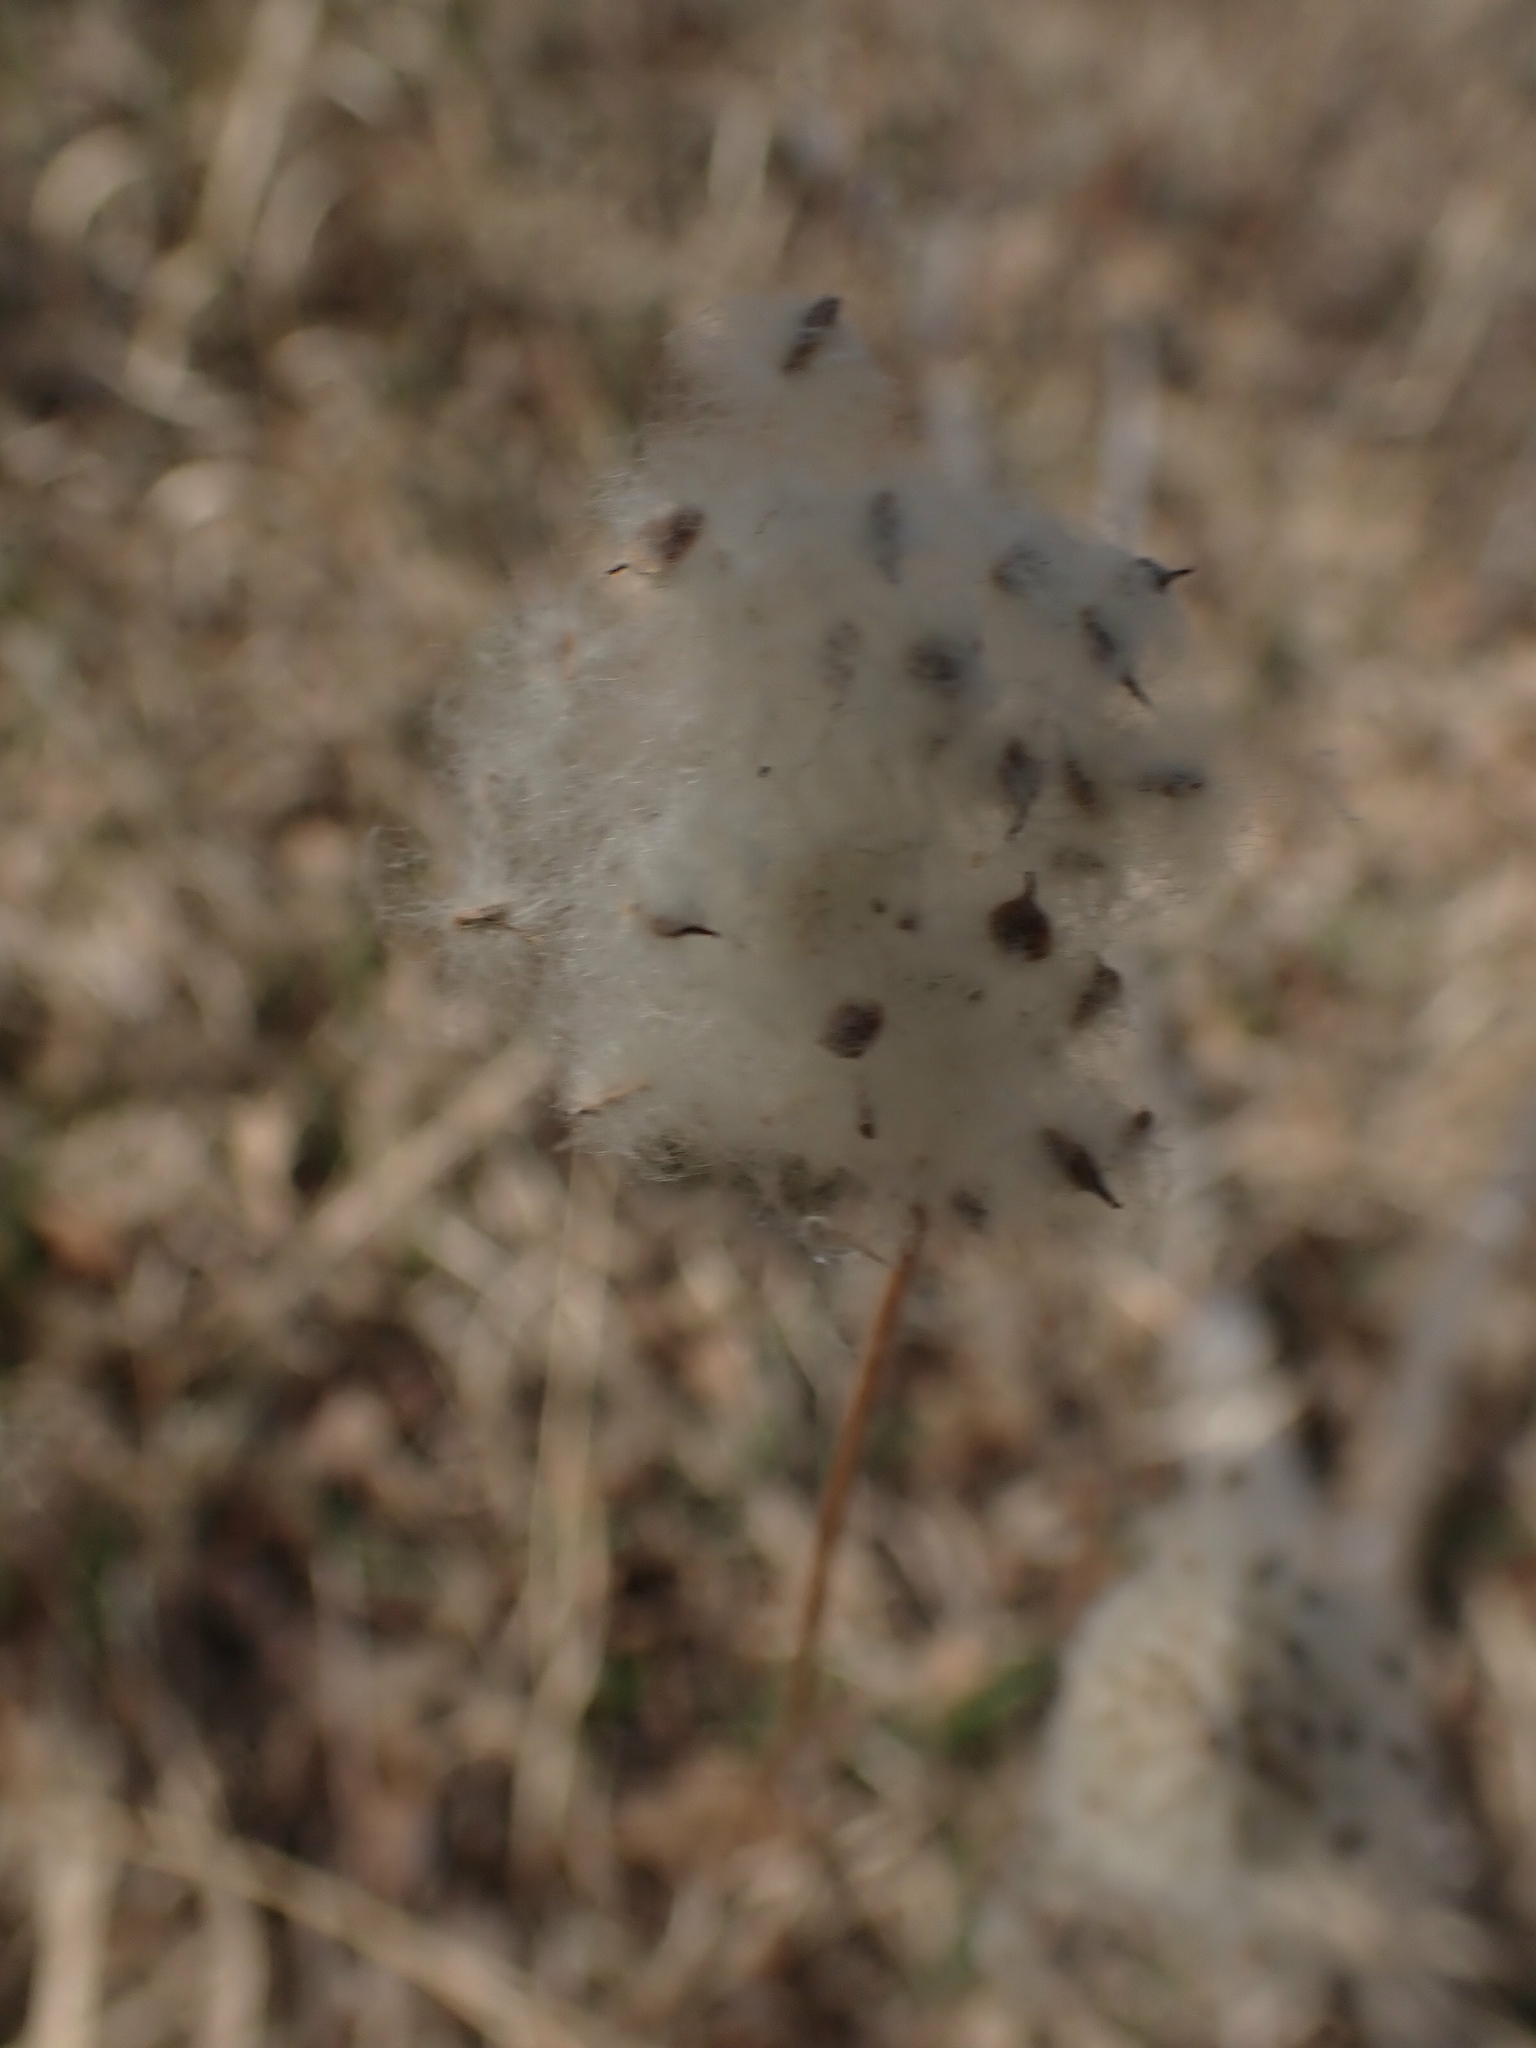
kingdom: Plantae
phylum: Tracheophyta
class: Magnoliopsida
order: Ranunculales
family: Ranunculaceae
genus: Anemone
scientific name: Anemone cylindrica
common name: Candle anemone
